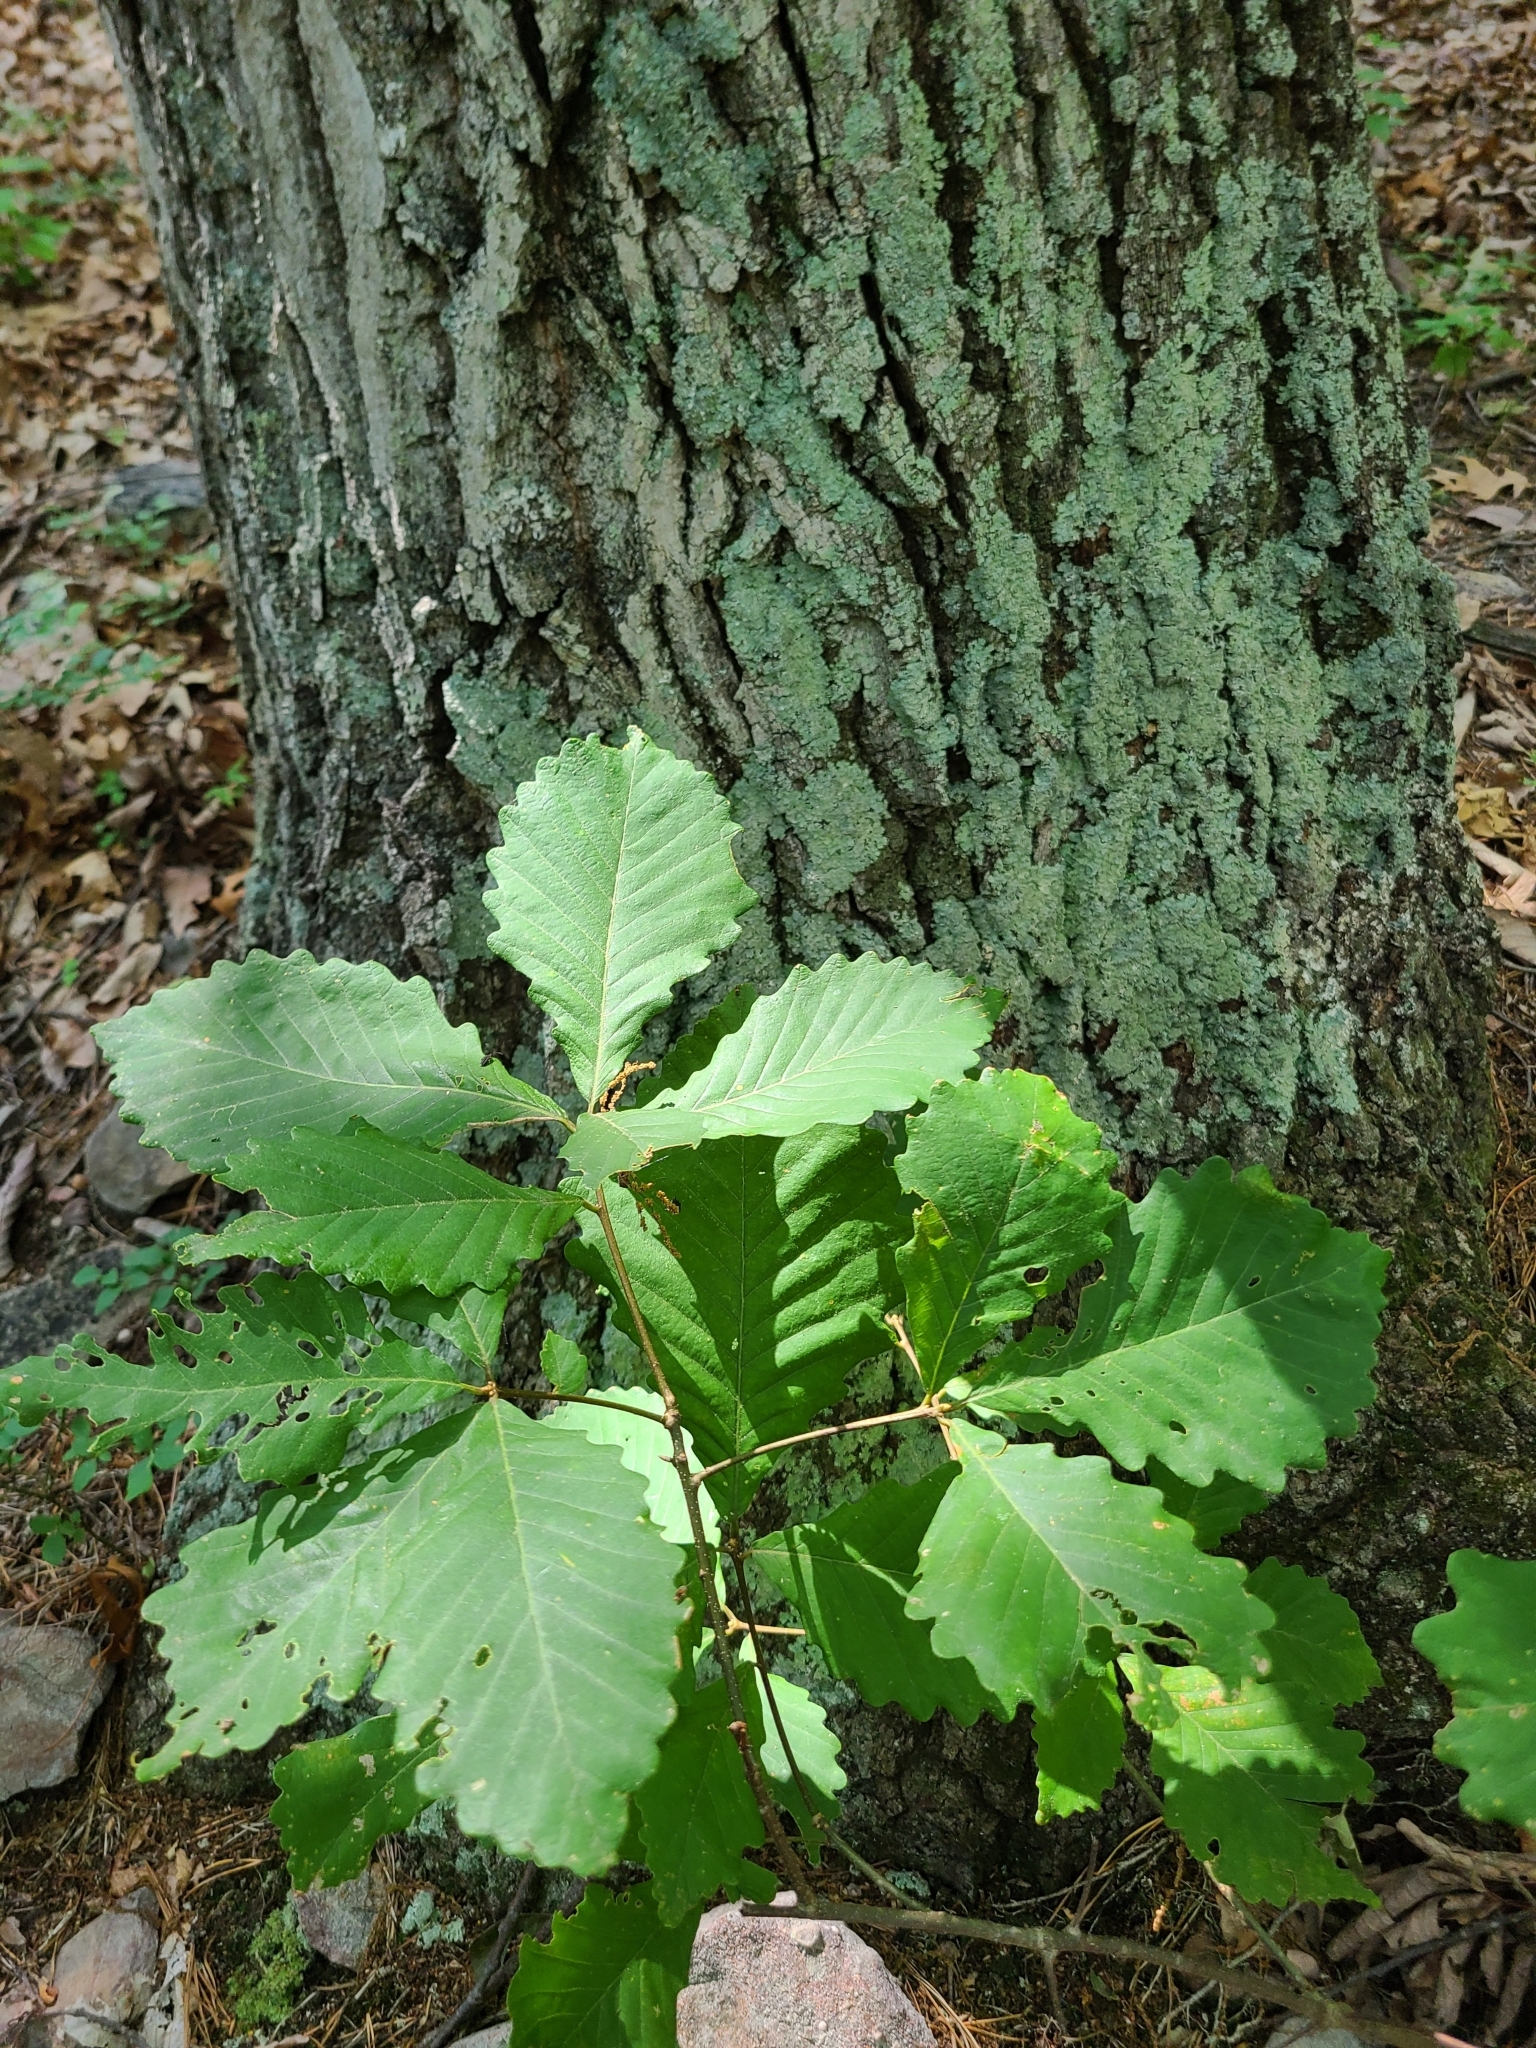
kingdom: Plantae
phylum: Tracheophyta
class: Magnoliopsida
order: Fagales
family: Fagaceae
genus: Quercus
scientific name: Quercus montana
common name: Chestnut oak
